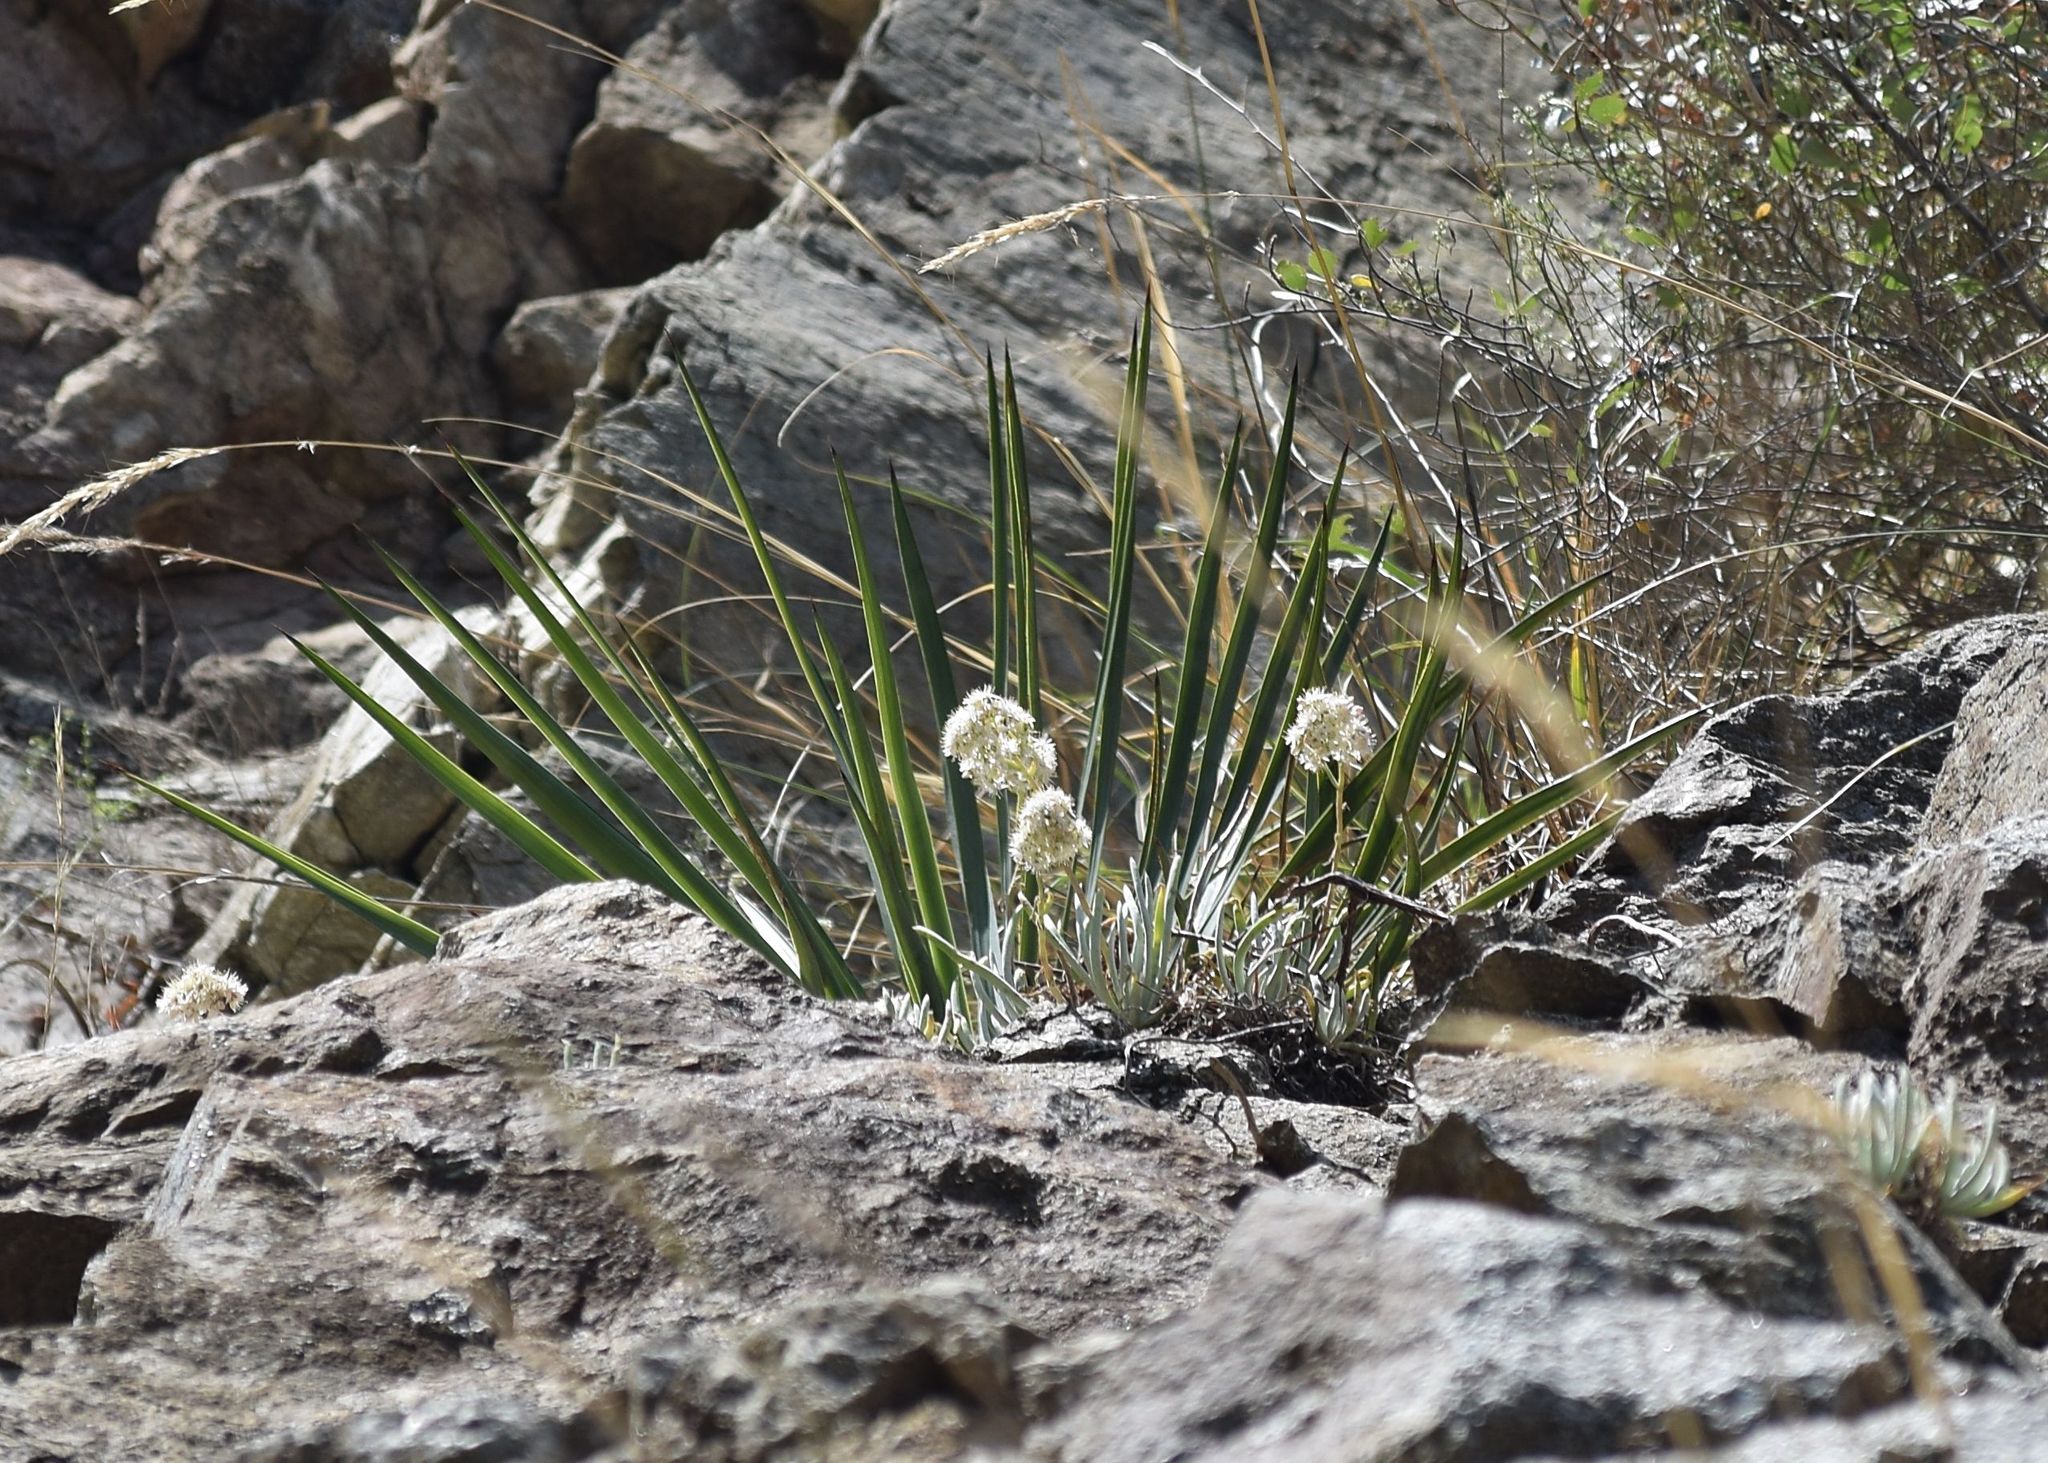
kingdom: Plantae
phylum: Tracheophyta
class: Magnoliopsida
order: Saxifragales
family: Crassulaceae
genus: Dudleya
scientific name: Dudleya densiflora
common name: San gabriel mountains dudleya
